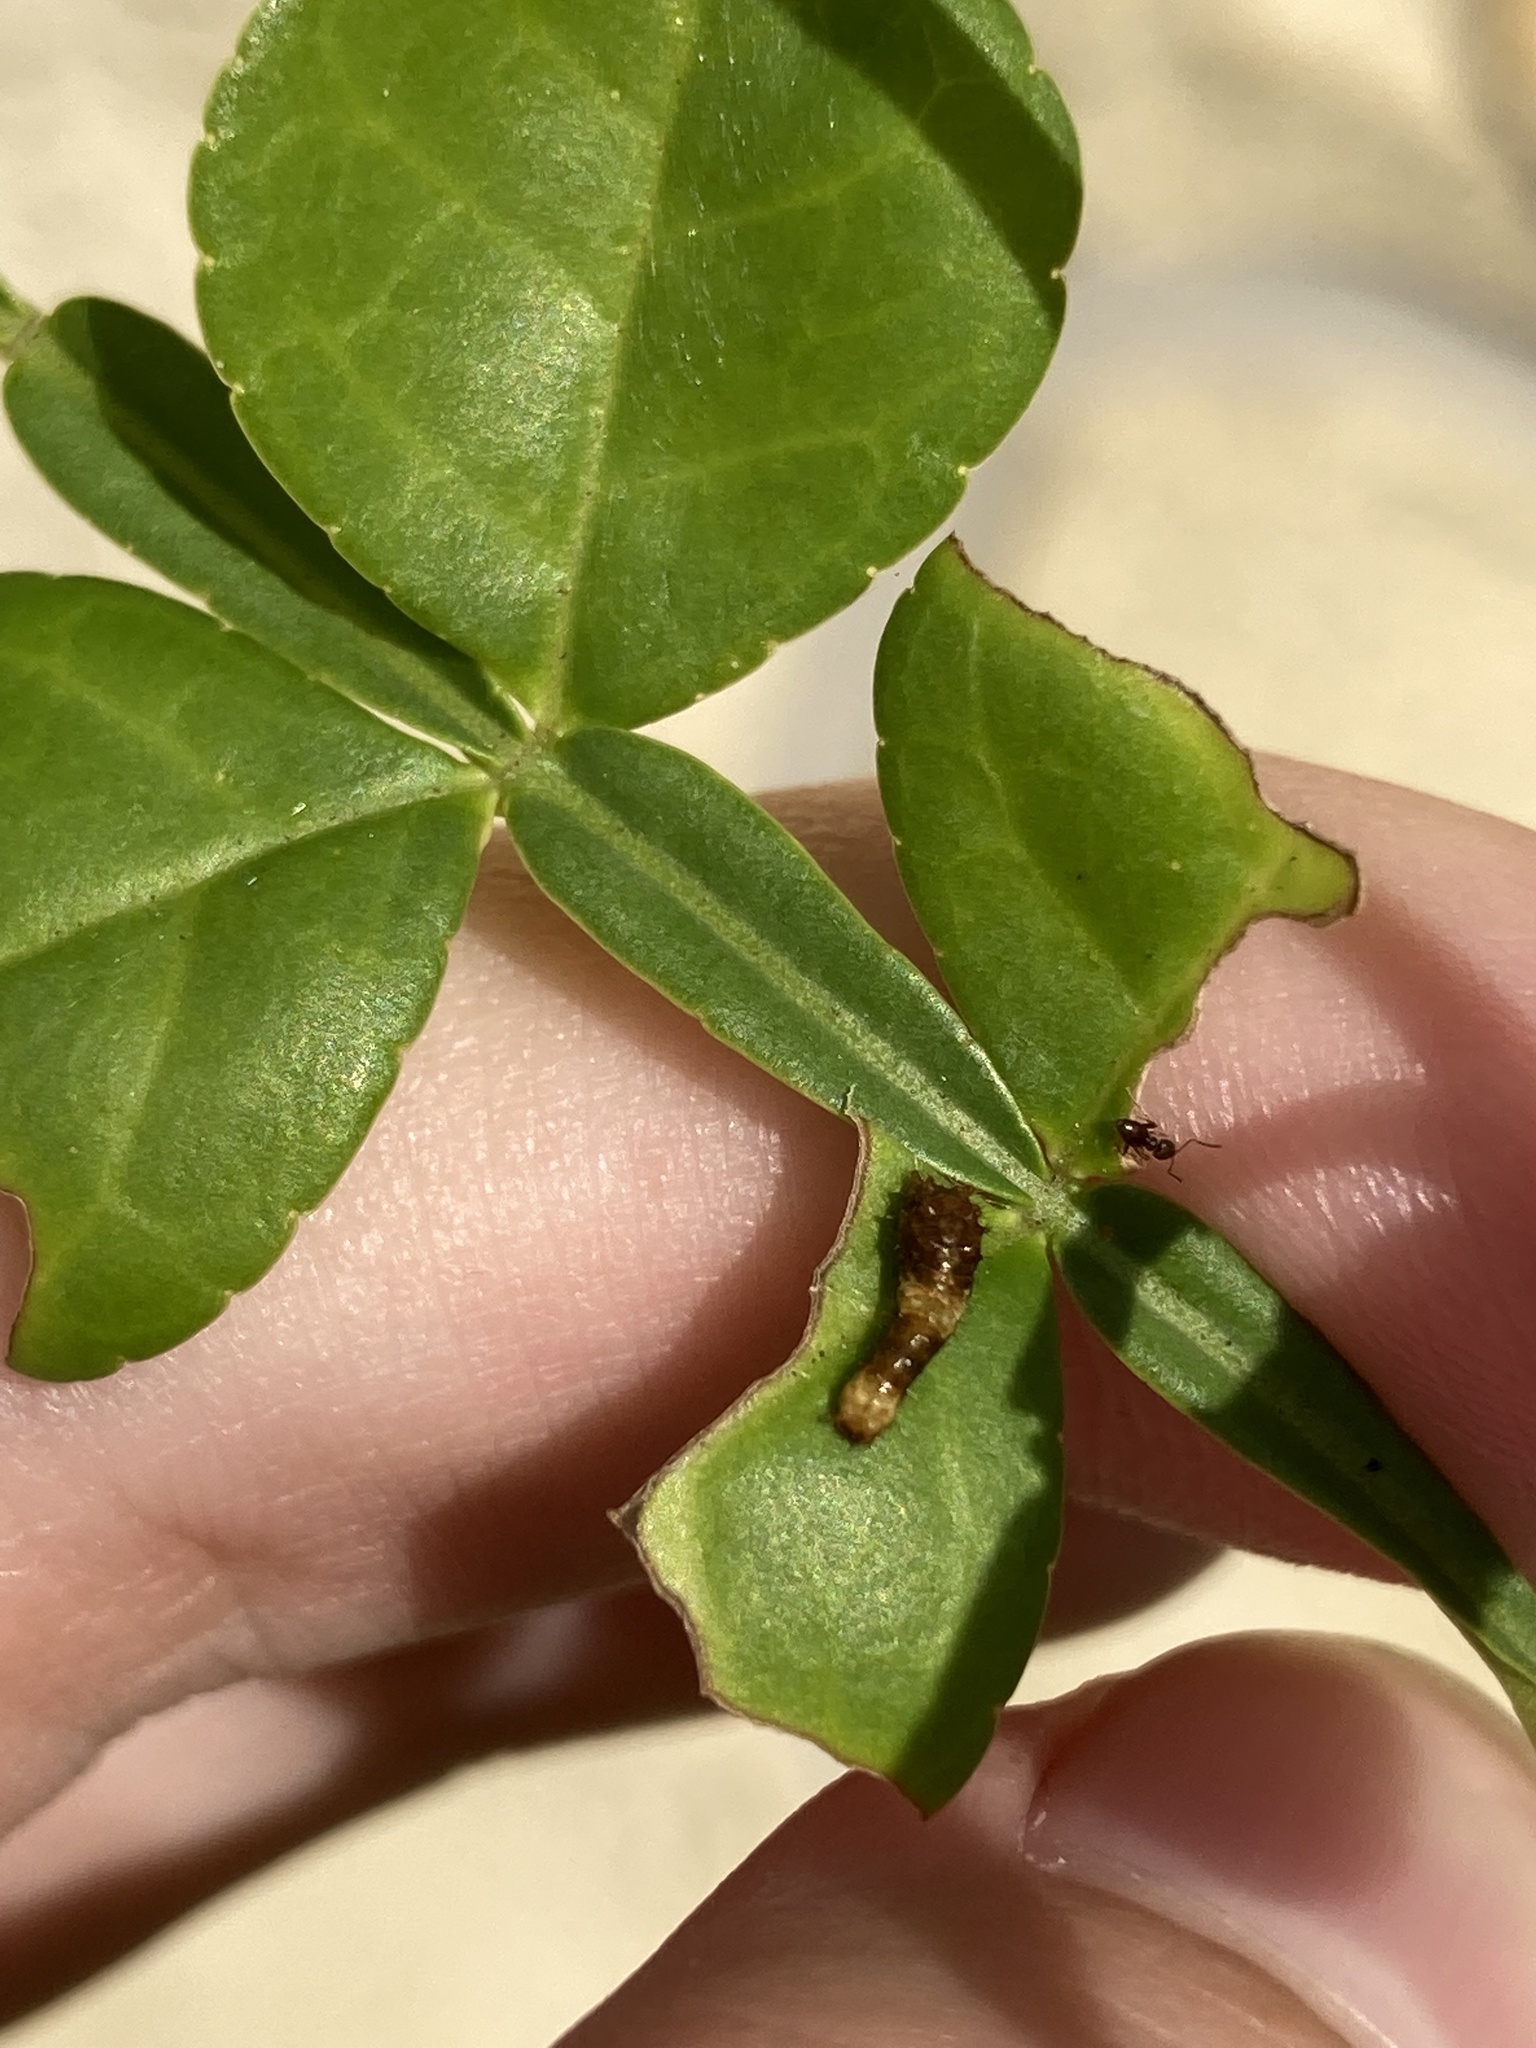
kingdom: Animalia
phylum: Arthropoda
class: Insecta
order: Lepidoptera
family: Papilionidae
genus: Papilio
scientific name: Papilio cresphontes
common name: Giant swallowtail
